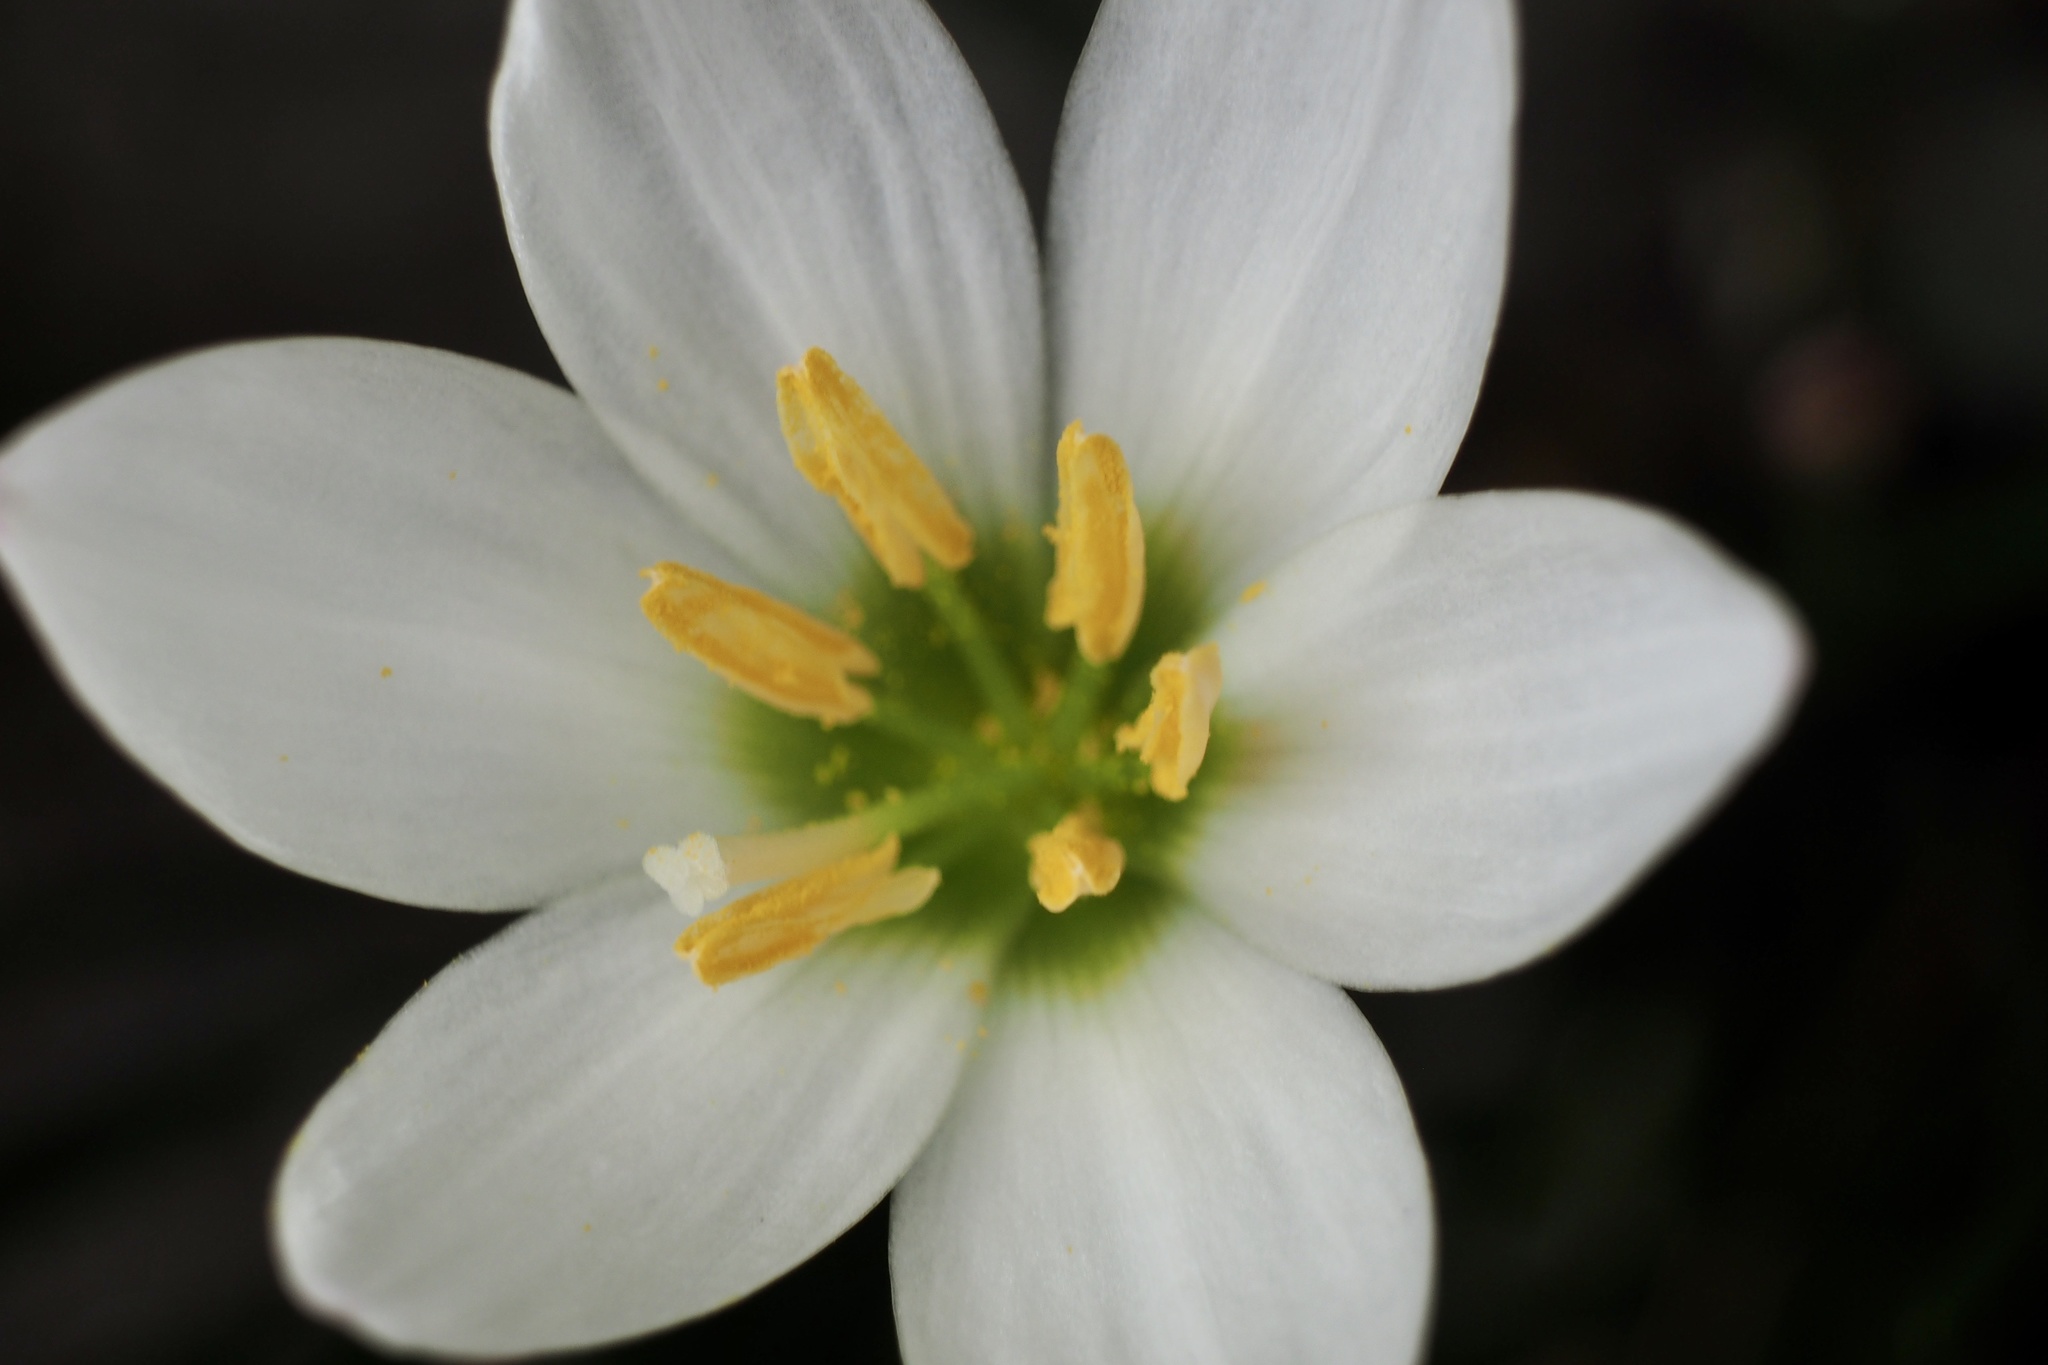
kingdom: Plantae
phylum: Tracheophyta
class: Liliopsida
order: Asparagales
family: Amaryllidaceae
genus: Zephyranthes
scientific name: Zephyranthes candida
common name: Autumn zephyrlily
